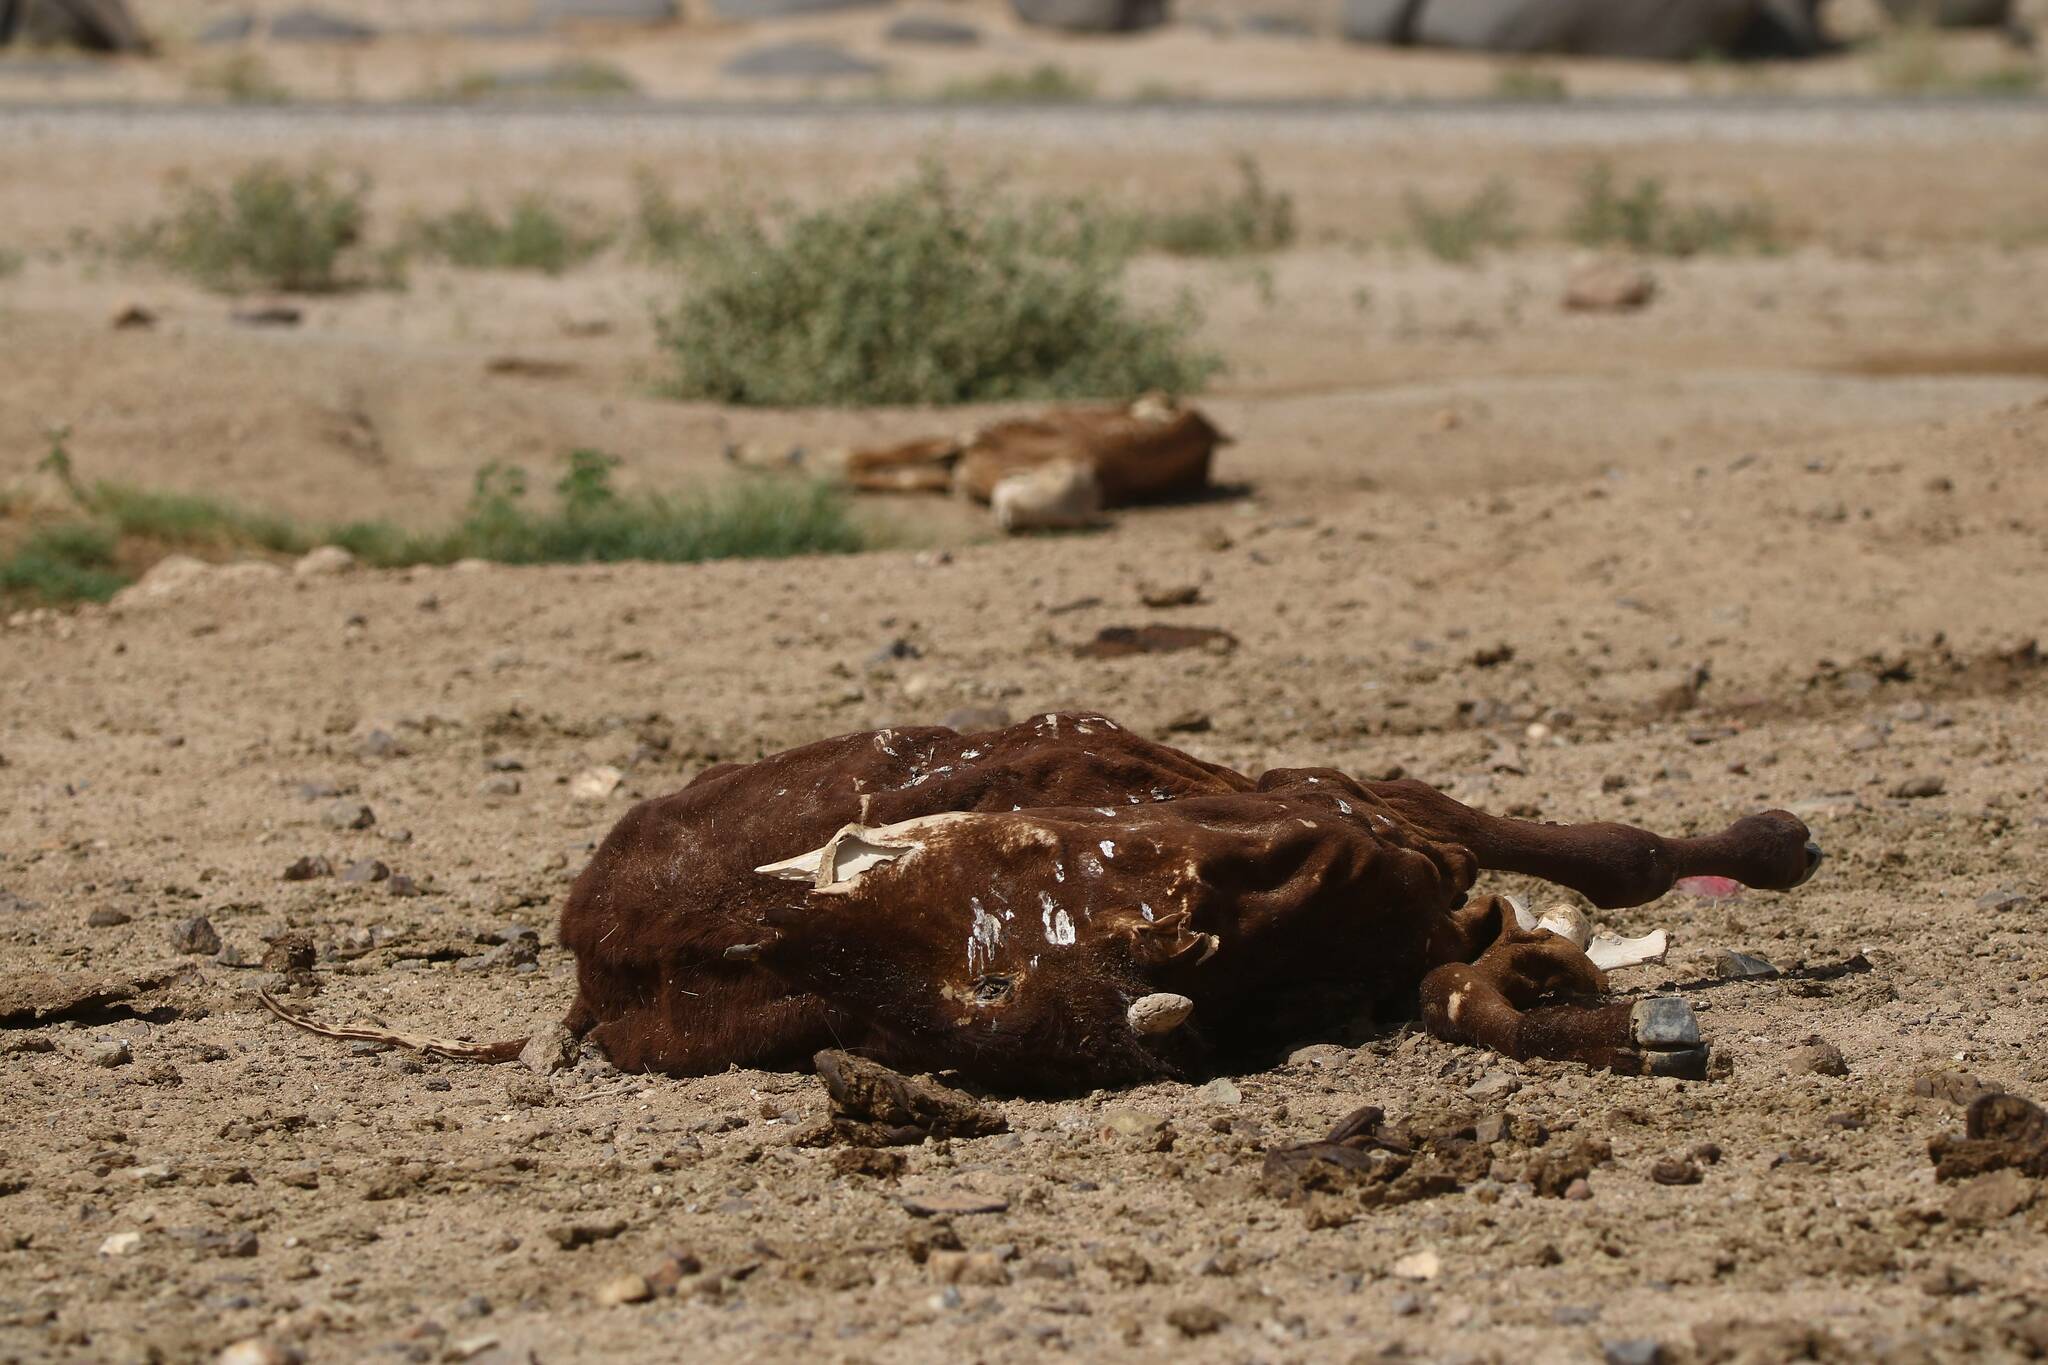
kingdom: Animalia
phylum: Chordata
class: Mammalia
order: Artiodactyla
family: Bovidae
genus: Bos
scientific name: Bos taurus
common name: Domesticated cattle
